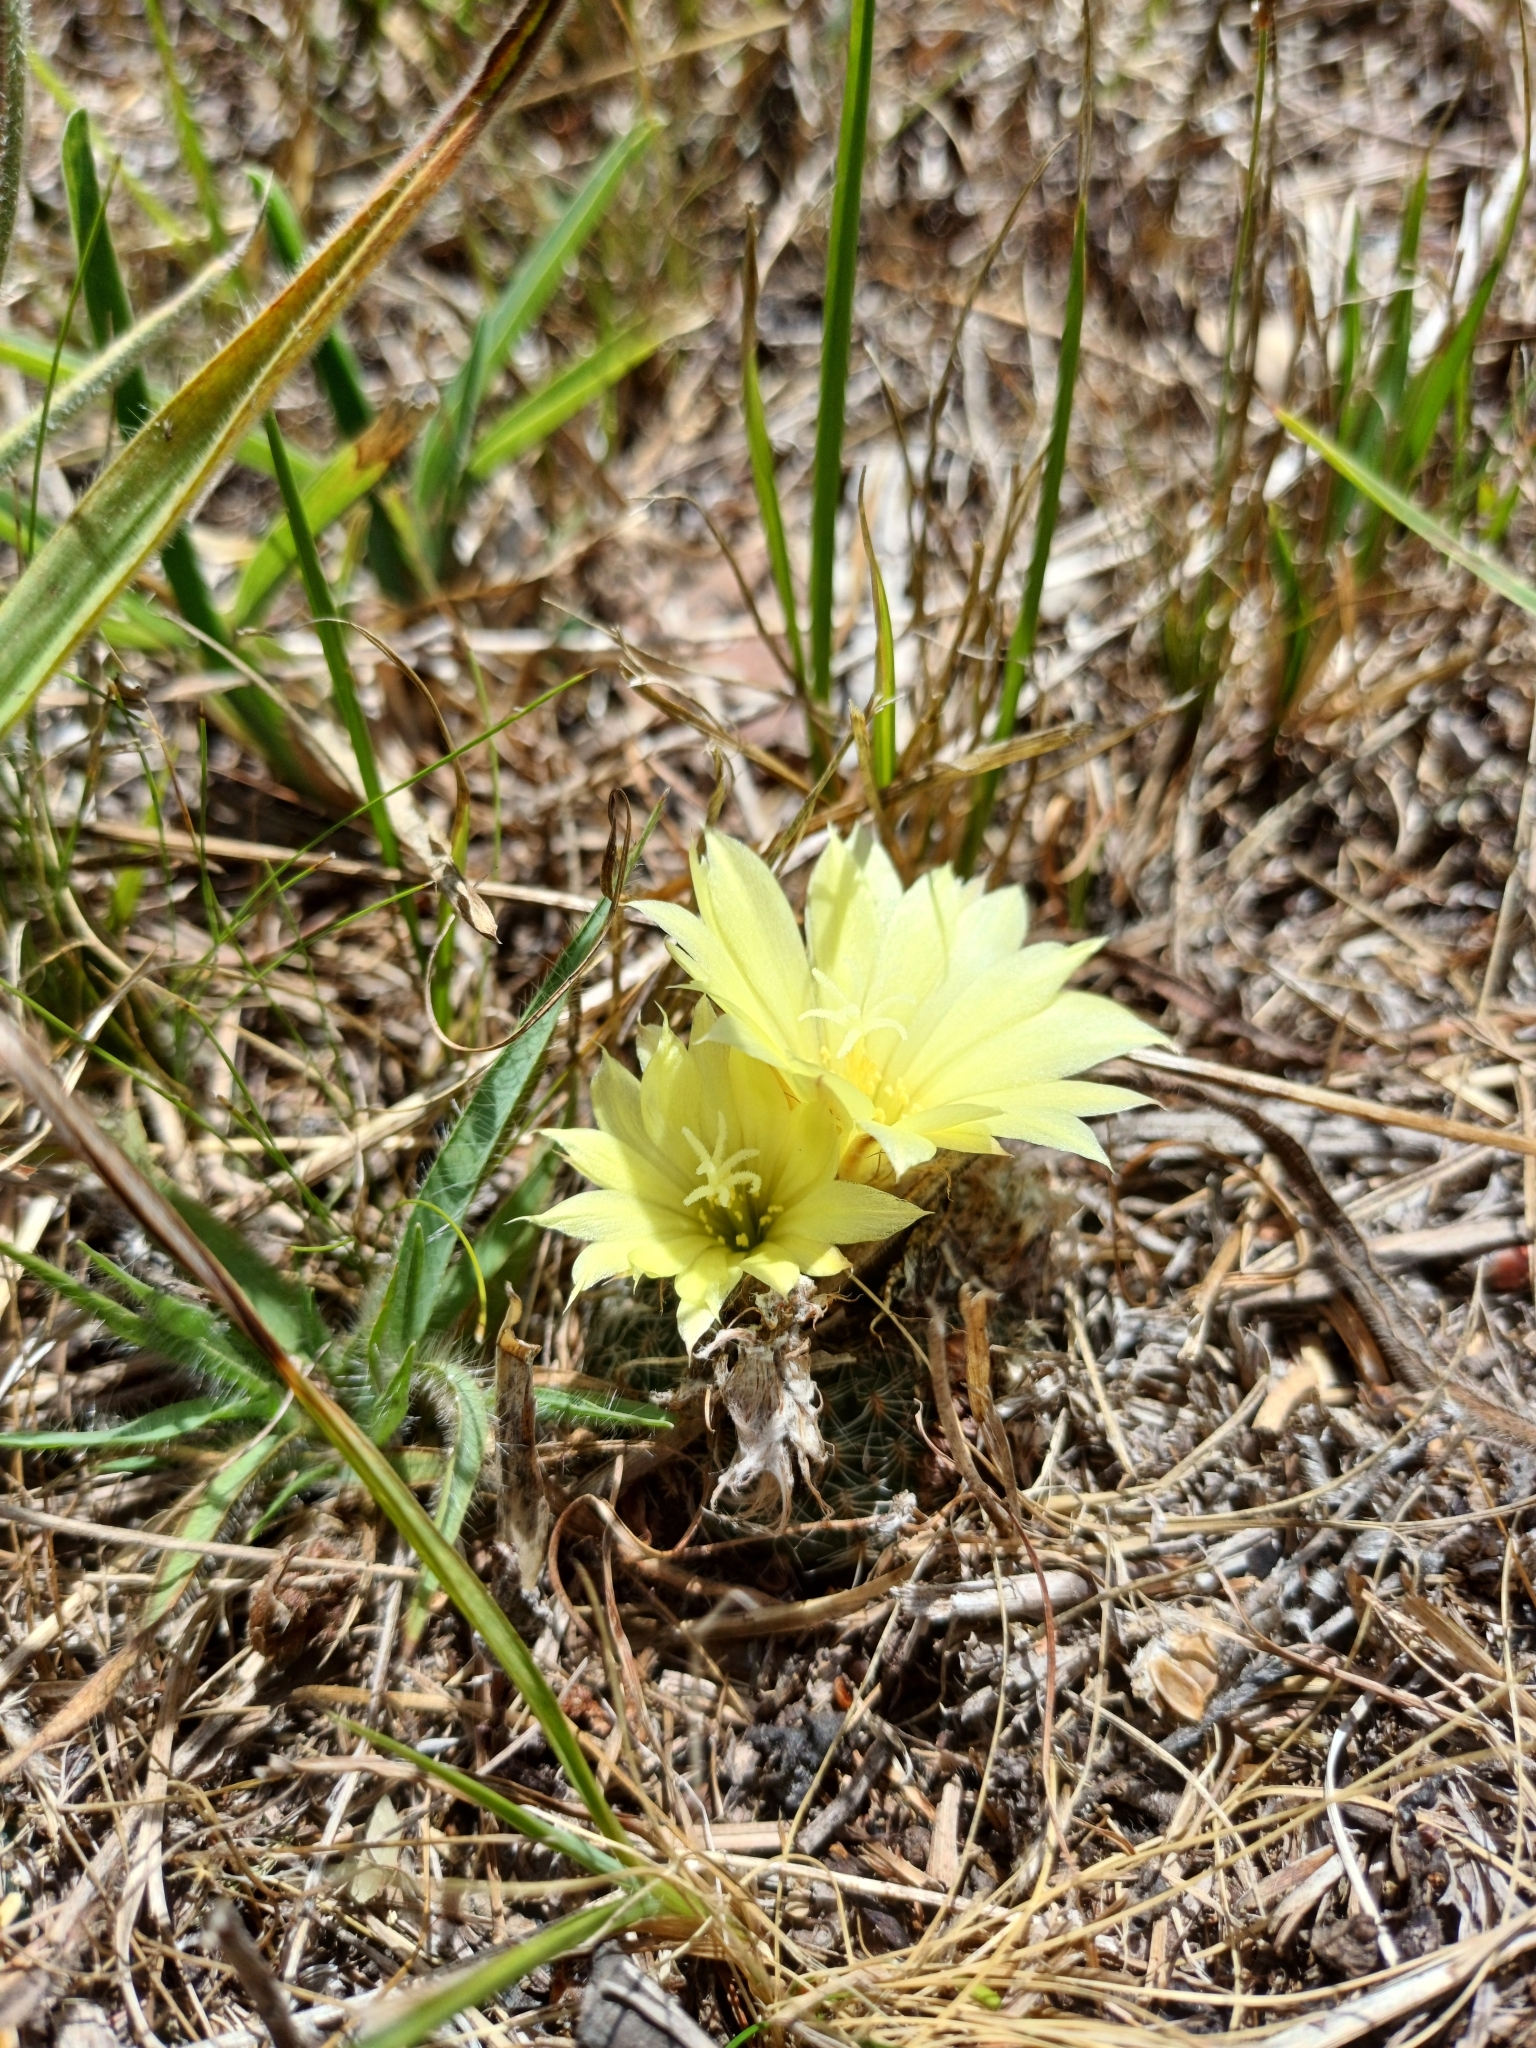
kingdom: Plantae
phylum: Tracheophyta
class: Magnoliopsida
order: Caryophyllales
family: Cactaceae
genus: Frailea
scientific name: Frailea pygmaea
